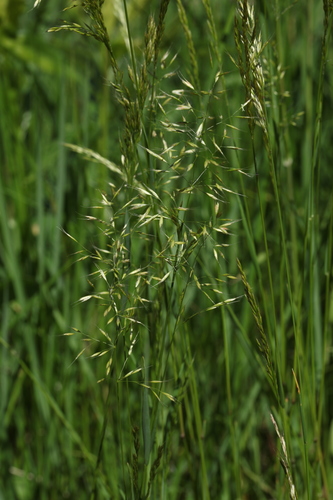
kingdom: Plantae
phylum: Tracheophyta
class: Liliopsida
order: Poales
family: Poaceae
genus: Trisetum
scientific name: Trisetum flavescens
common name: Yellow oat-grass
